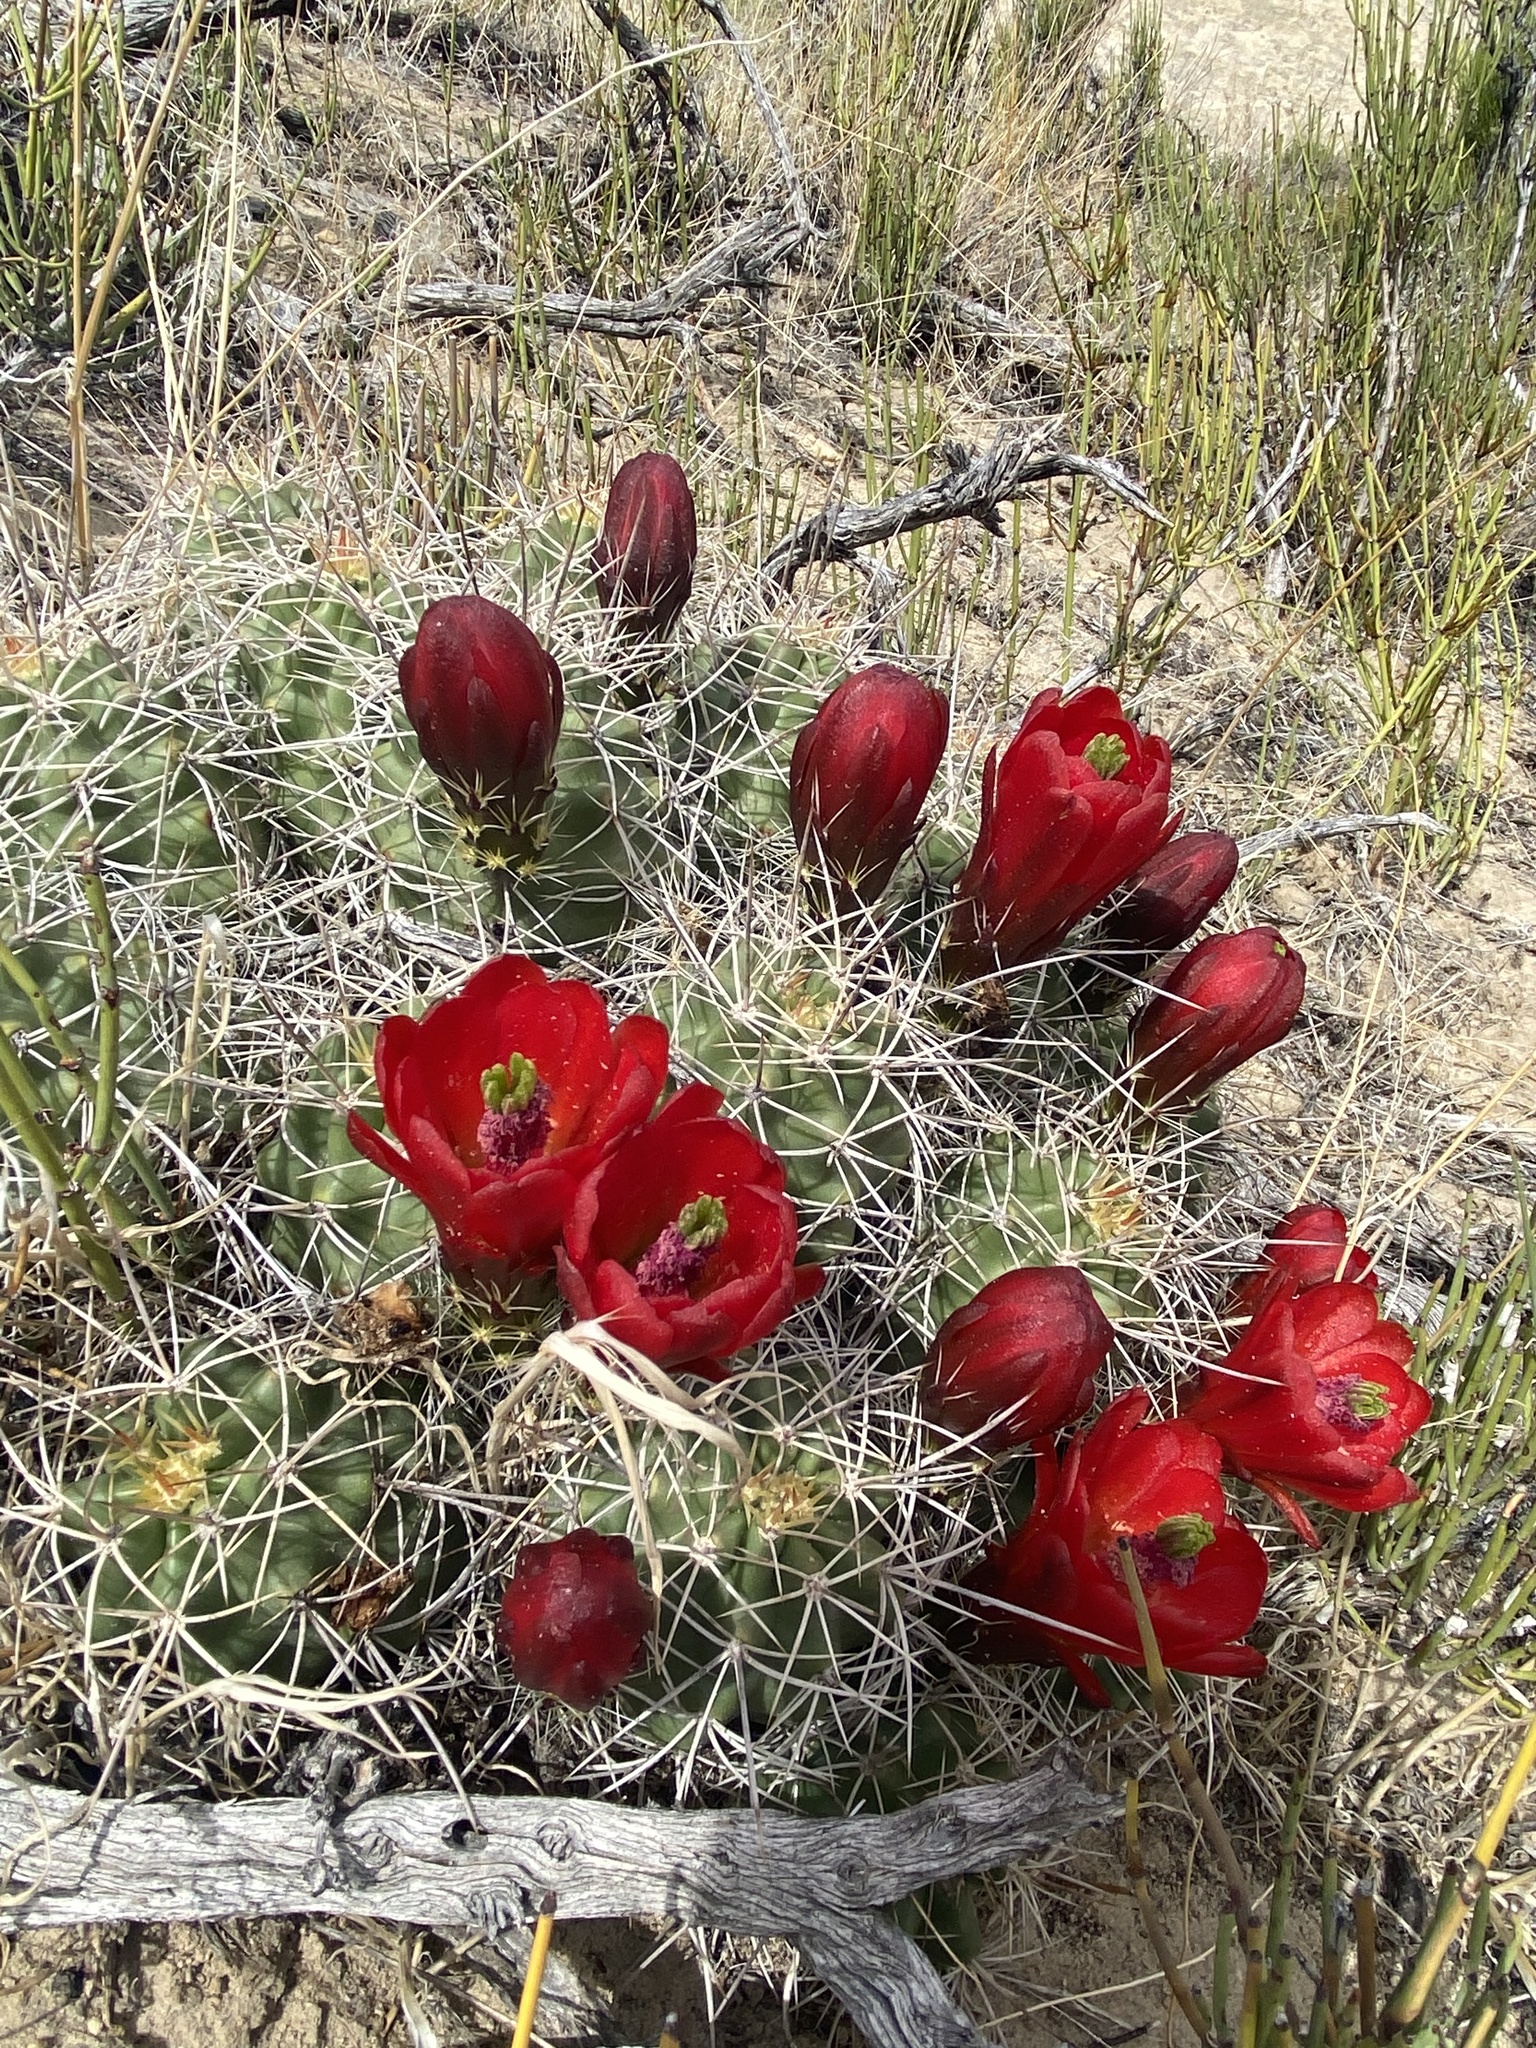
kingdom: Plantae
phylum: Tracheophyta
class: Magnoliopsida
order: Caryophyllales
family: Cactaceae
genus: Echinocereus
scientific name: Echinocereus triglochidiatus
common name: Claretcup hedgehog
